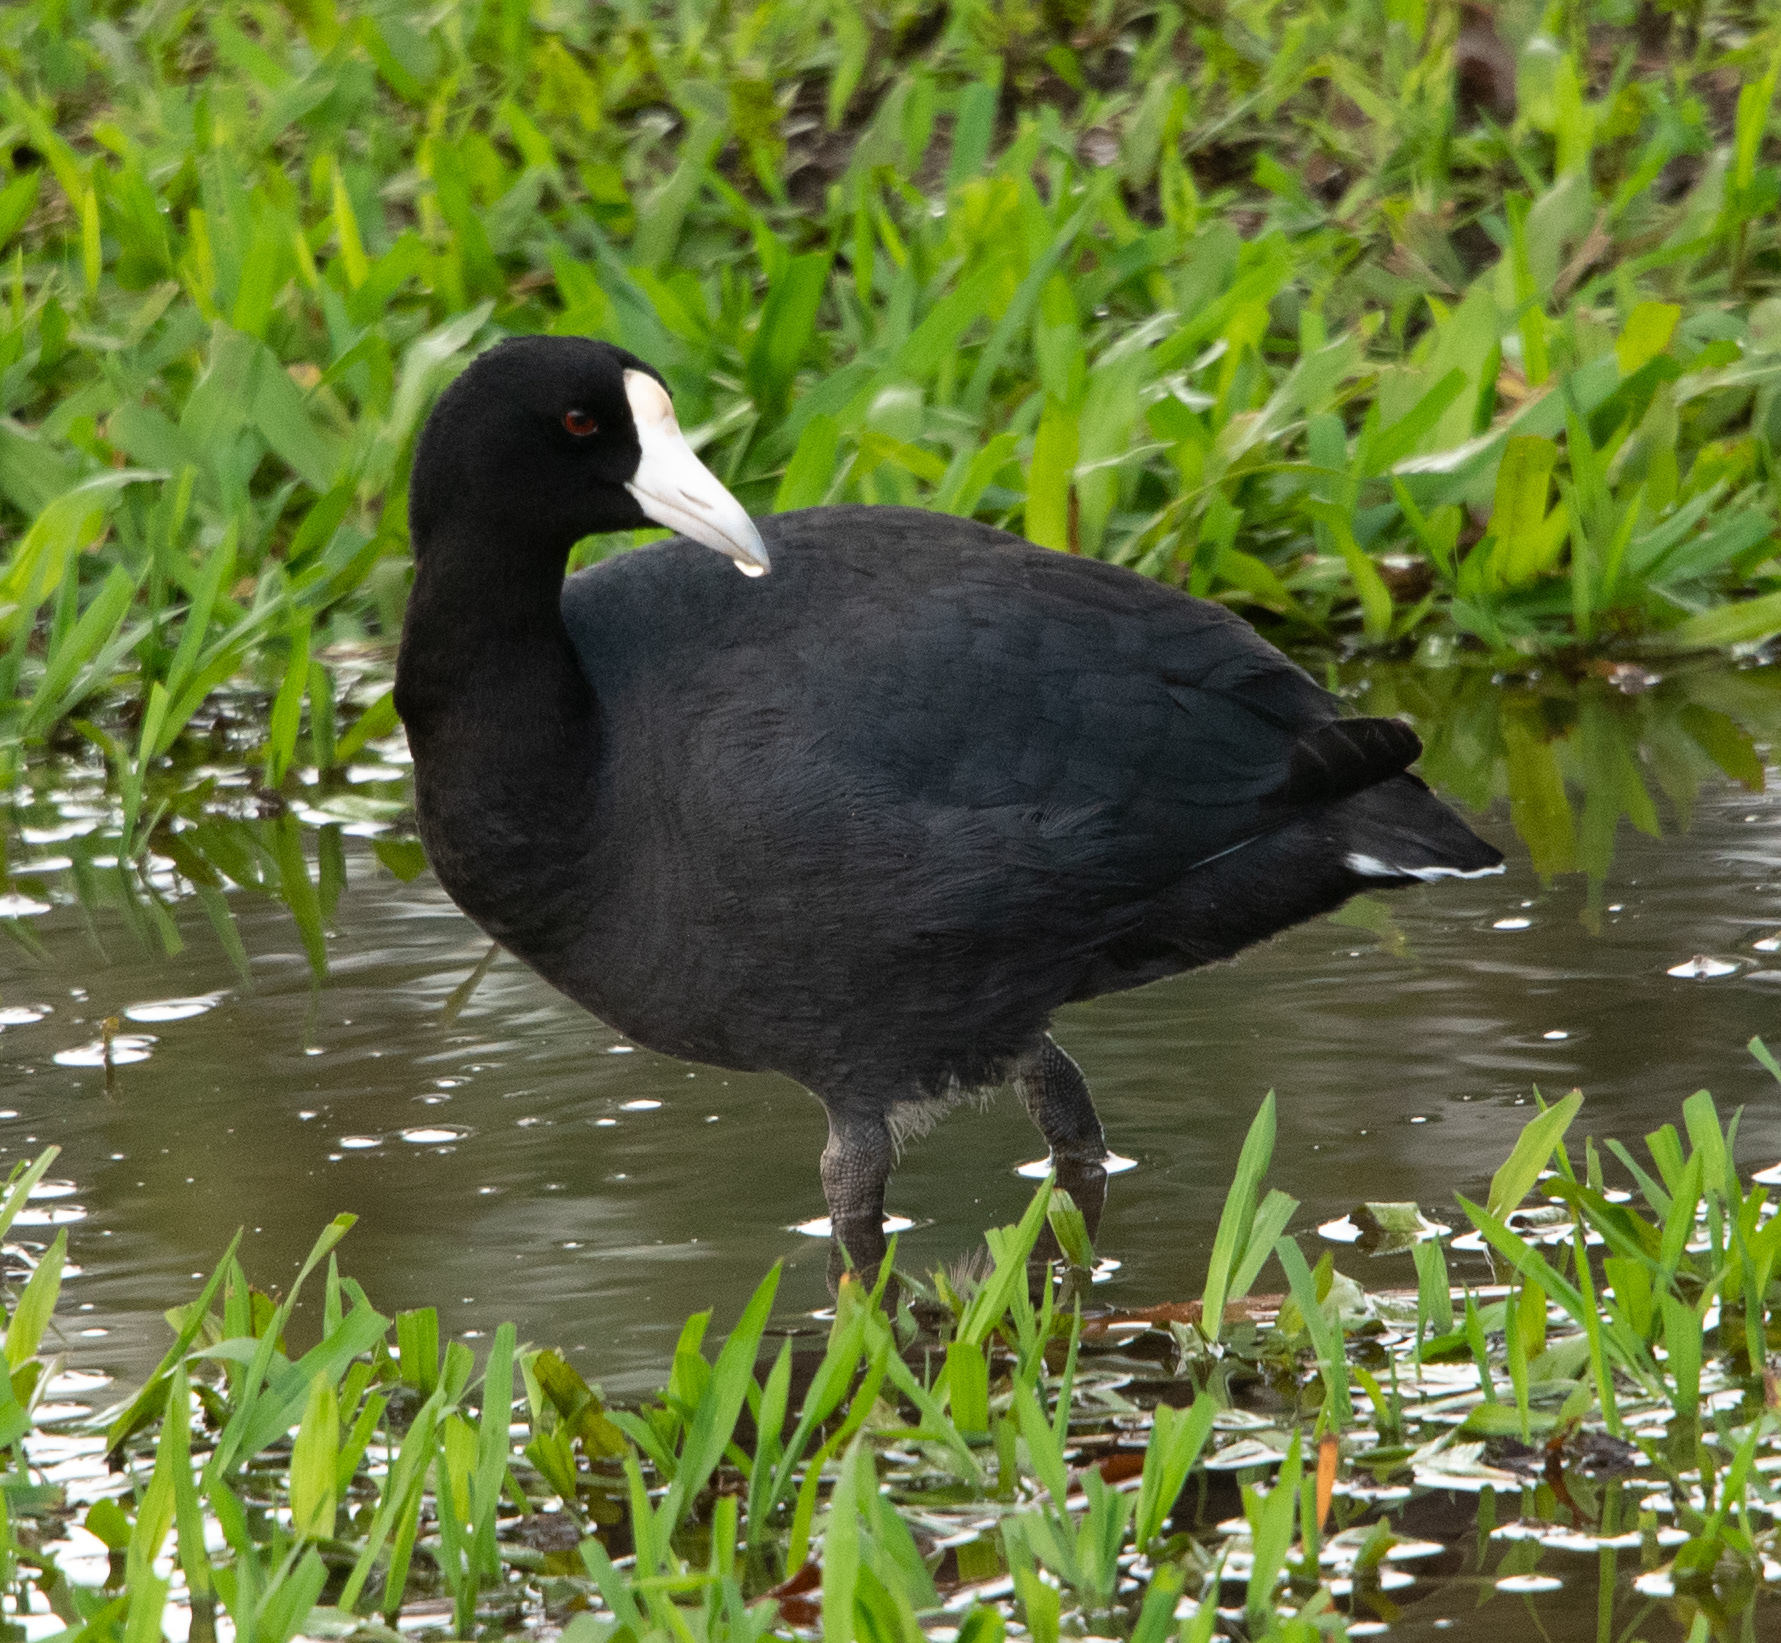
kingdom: Animalia
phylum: Chordata
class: Aves
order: Gruiformes
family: Rallidae
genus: Fulica
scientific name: Fulica alai
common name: Hawaiian coot
